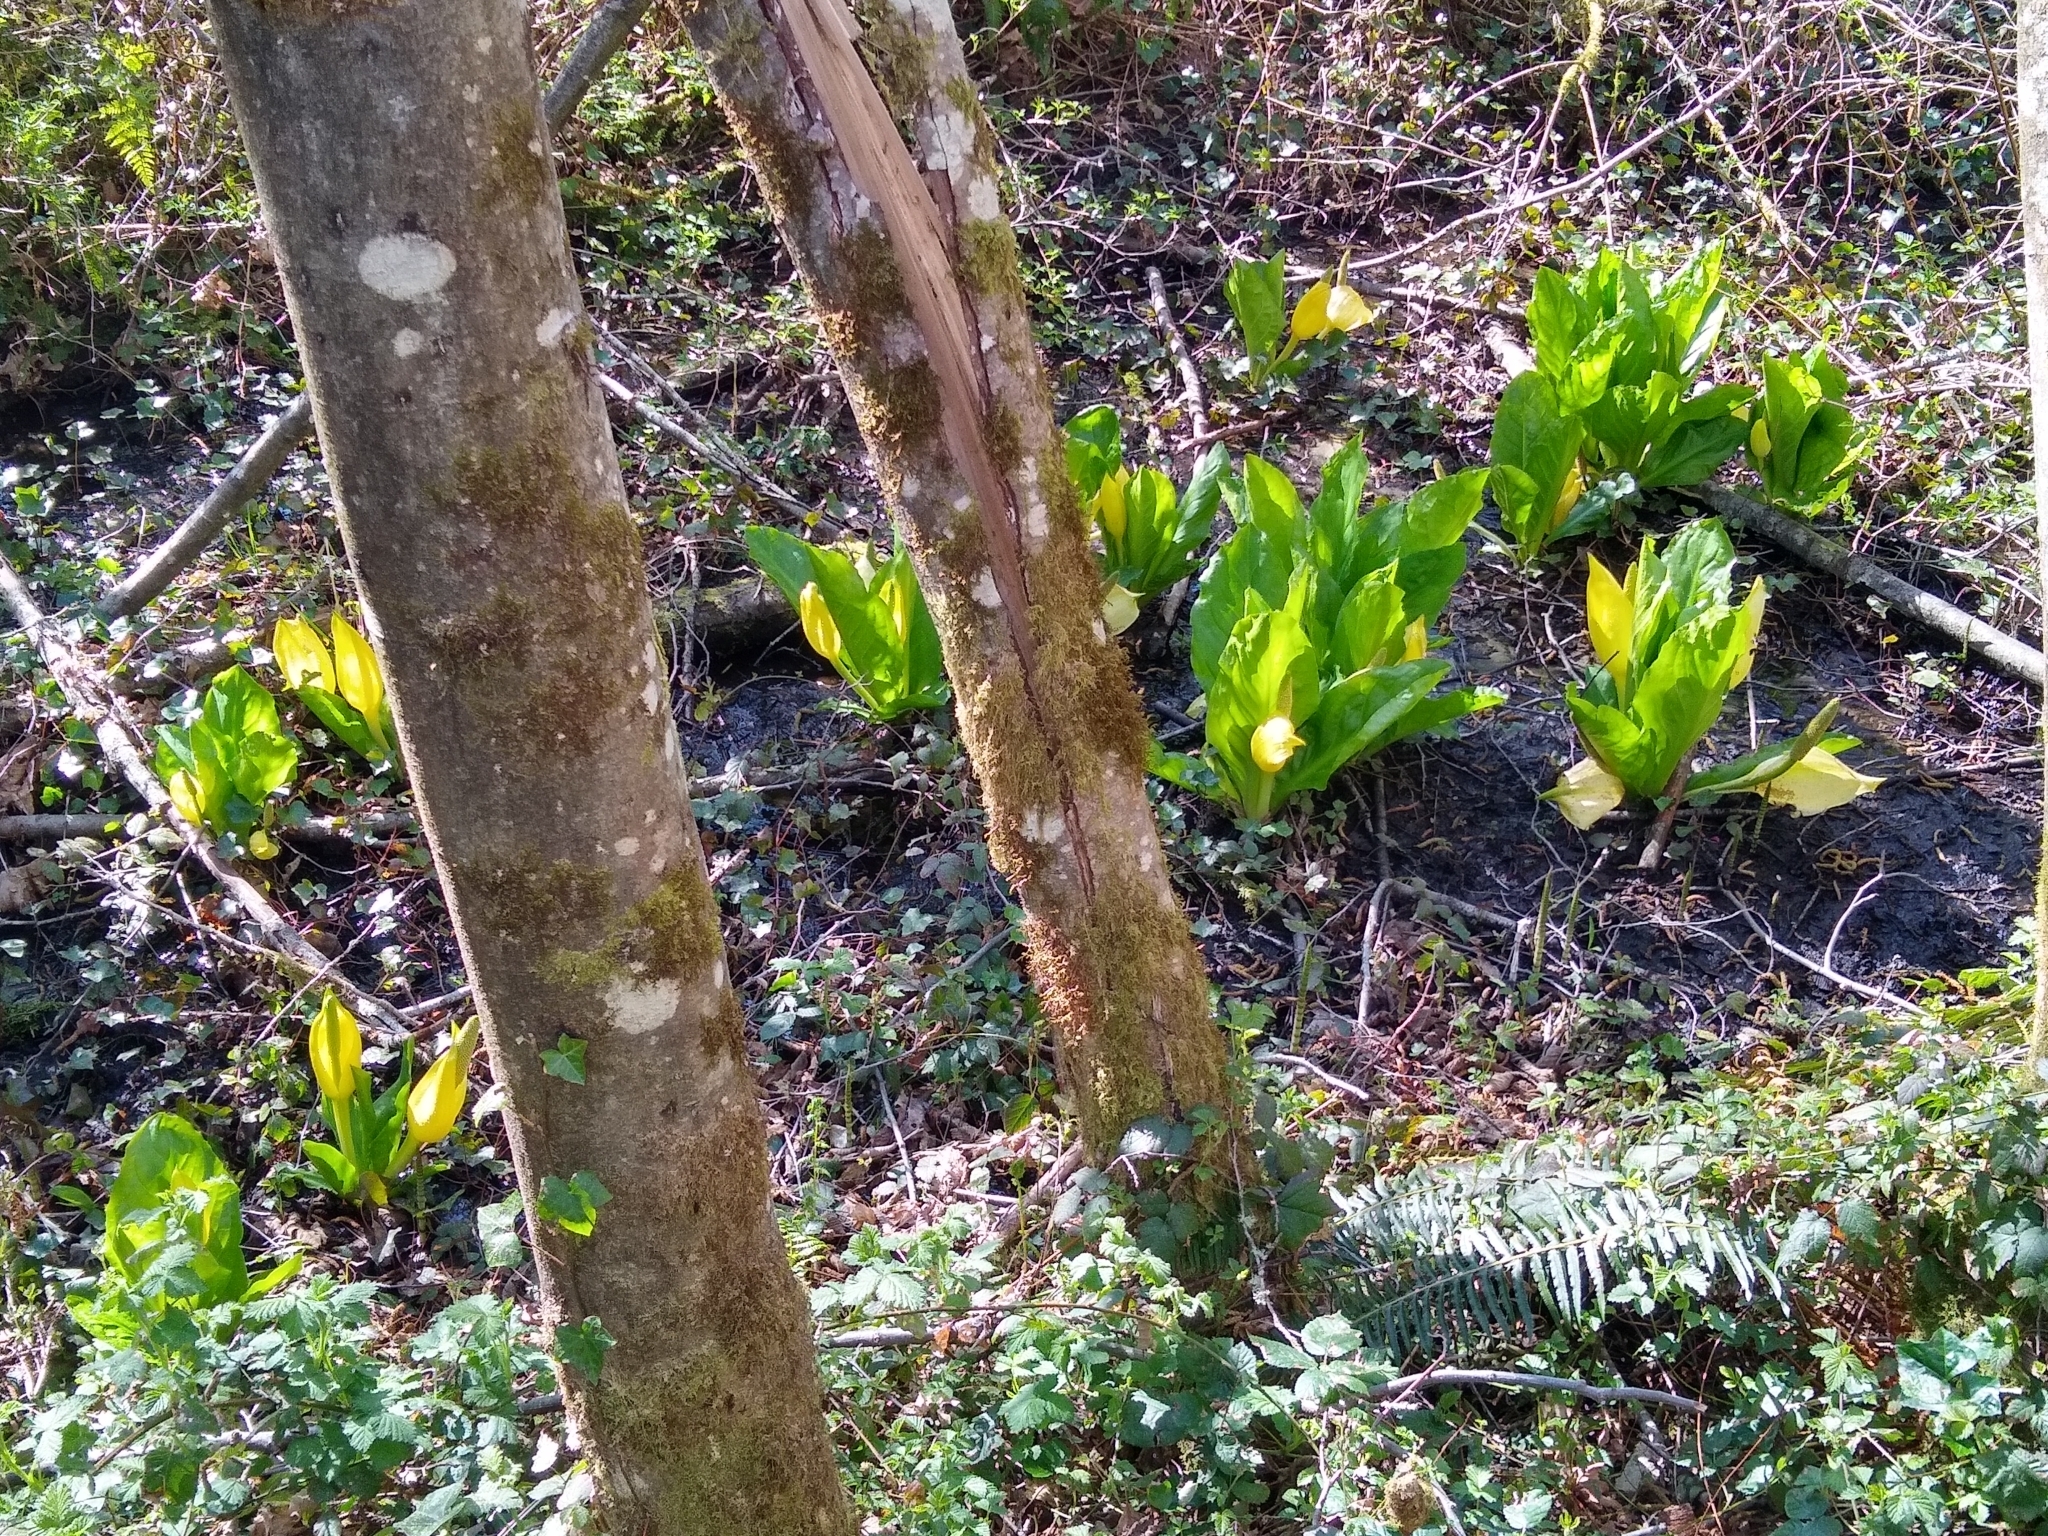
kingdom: Plantae
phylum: Tracheophyta
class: Liliopsida
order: Alismatales
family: Araceae
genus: Lysichiton
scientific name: Lysichiton americanus
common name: American skunk cabbage
